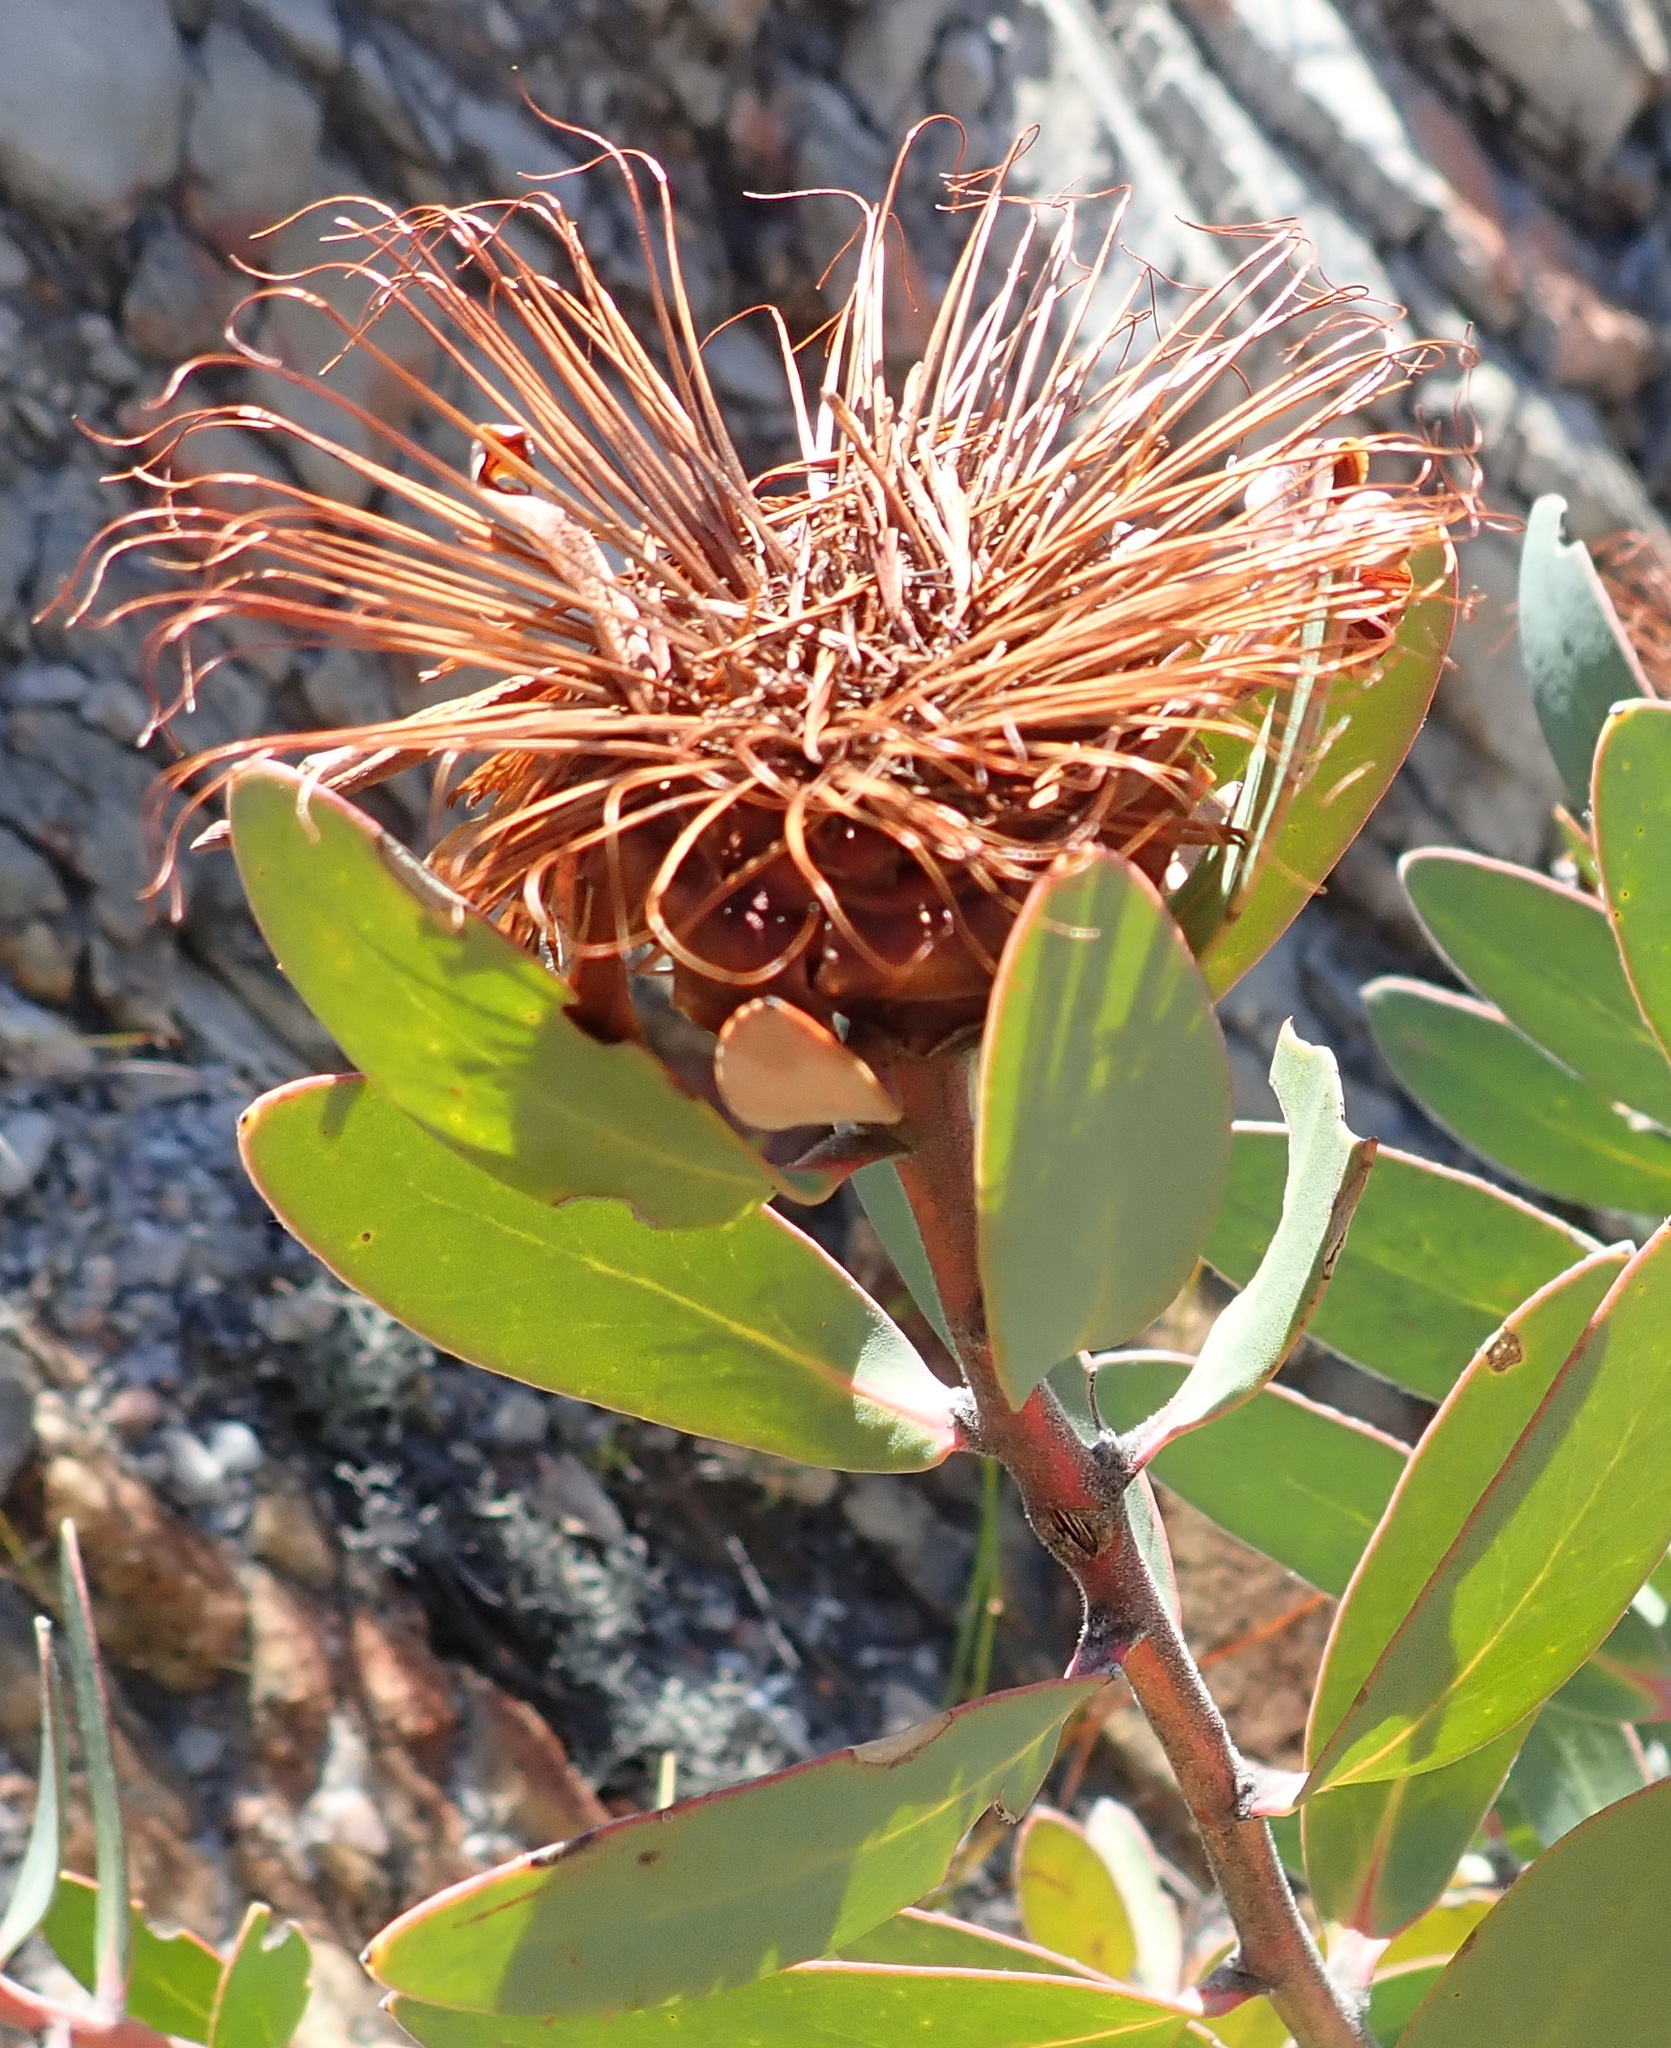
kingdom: Plantae
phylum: Tracheophyta
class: Magnoliopsida
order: Proteales
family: Proteaceae
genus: Protea
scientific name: Protea punctata
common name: Water sugarbush
